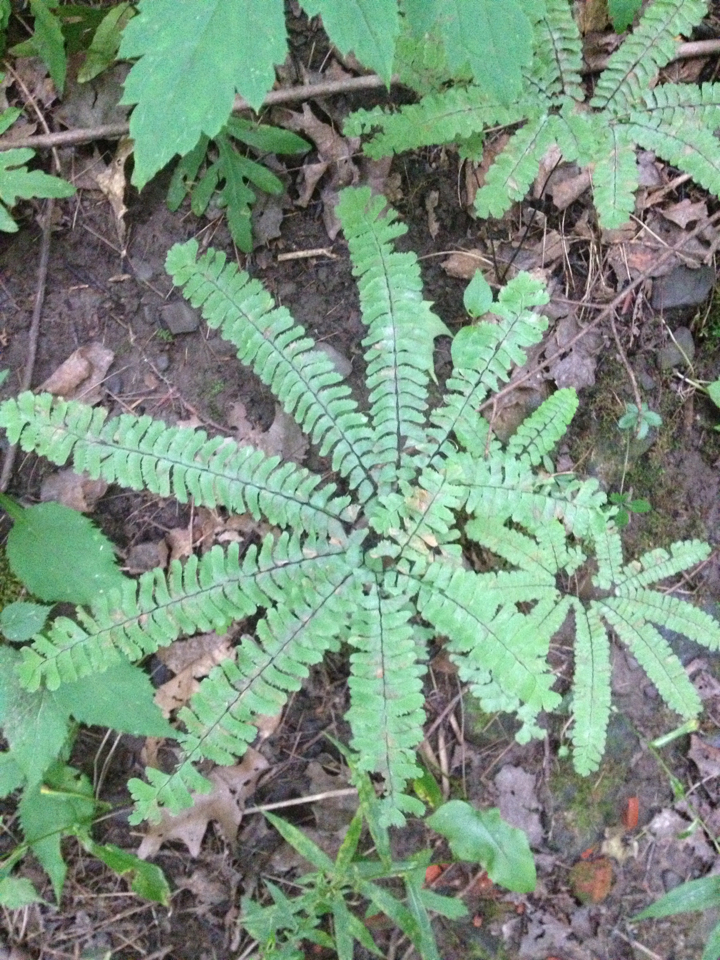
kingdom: Plantae
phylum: Tracheophyta
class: Polypodiopsida
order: Polypodiales
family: Pteridaceae
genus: Adiantum
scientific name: Adiantum pedatum
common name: Five-finger fern
